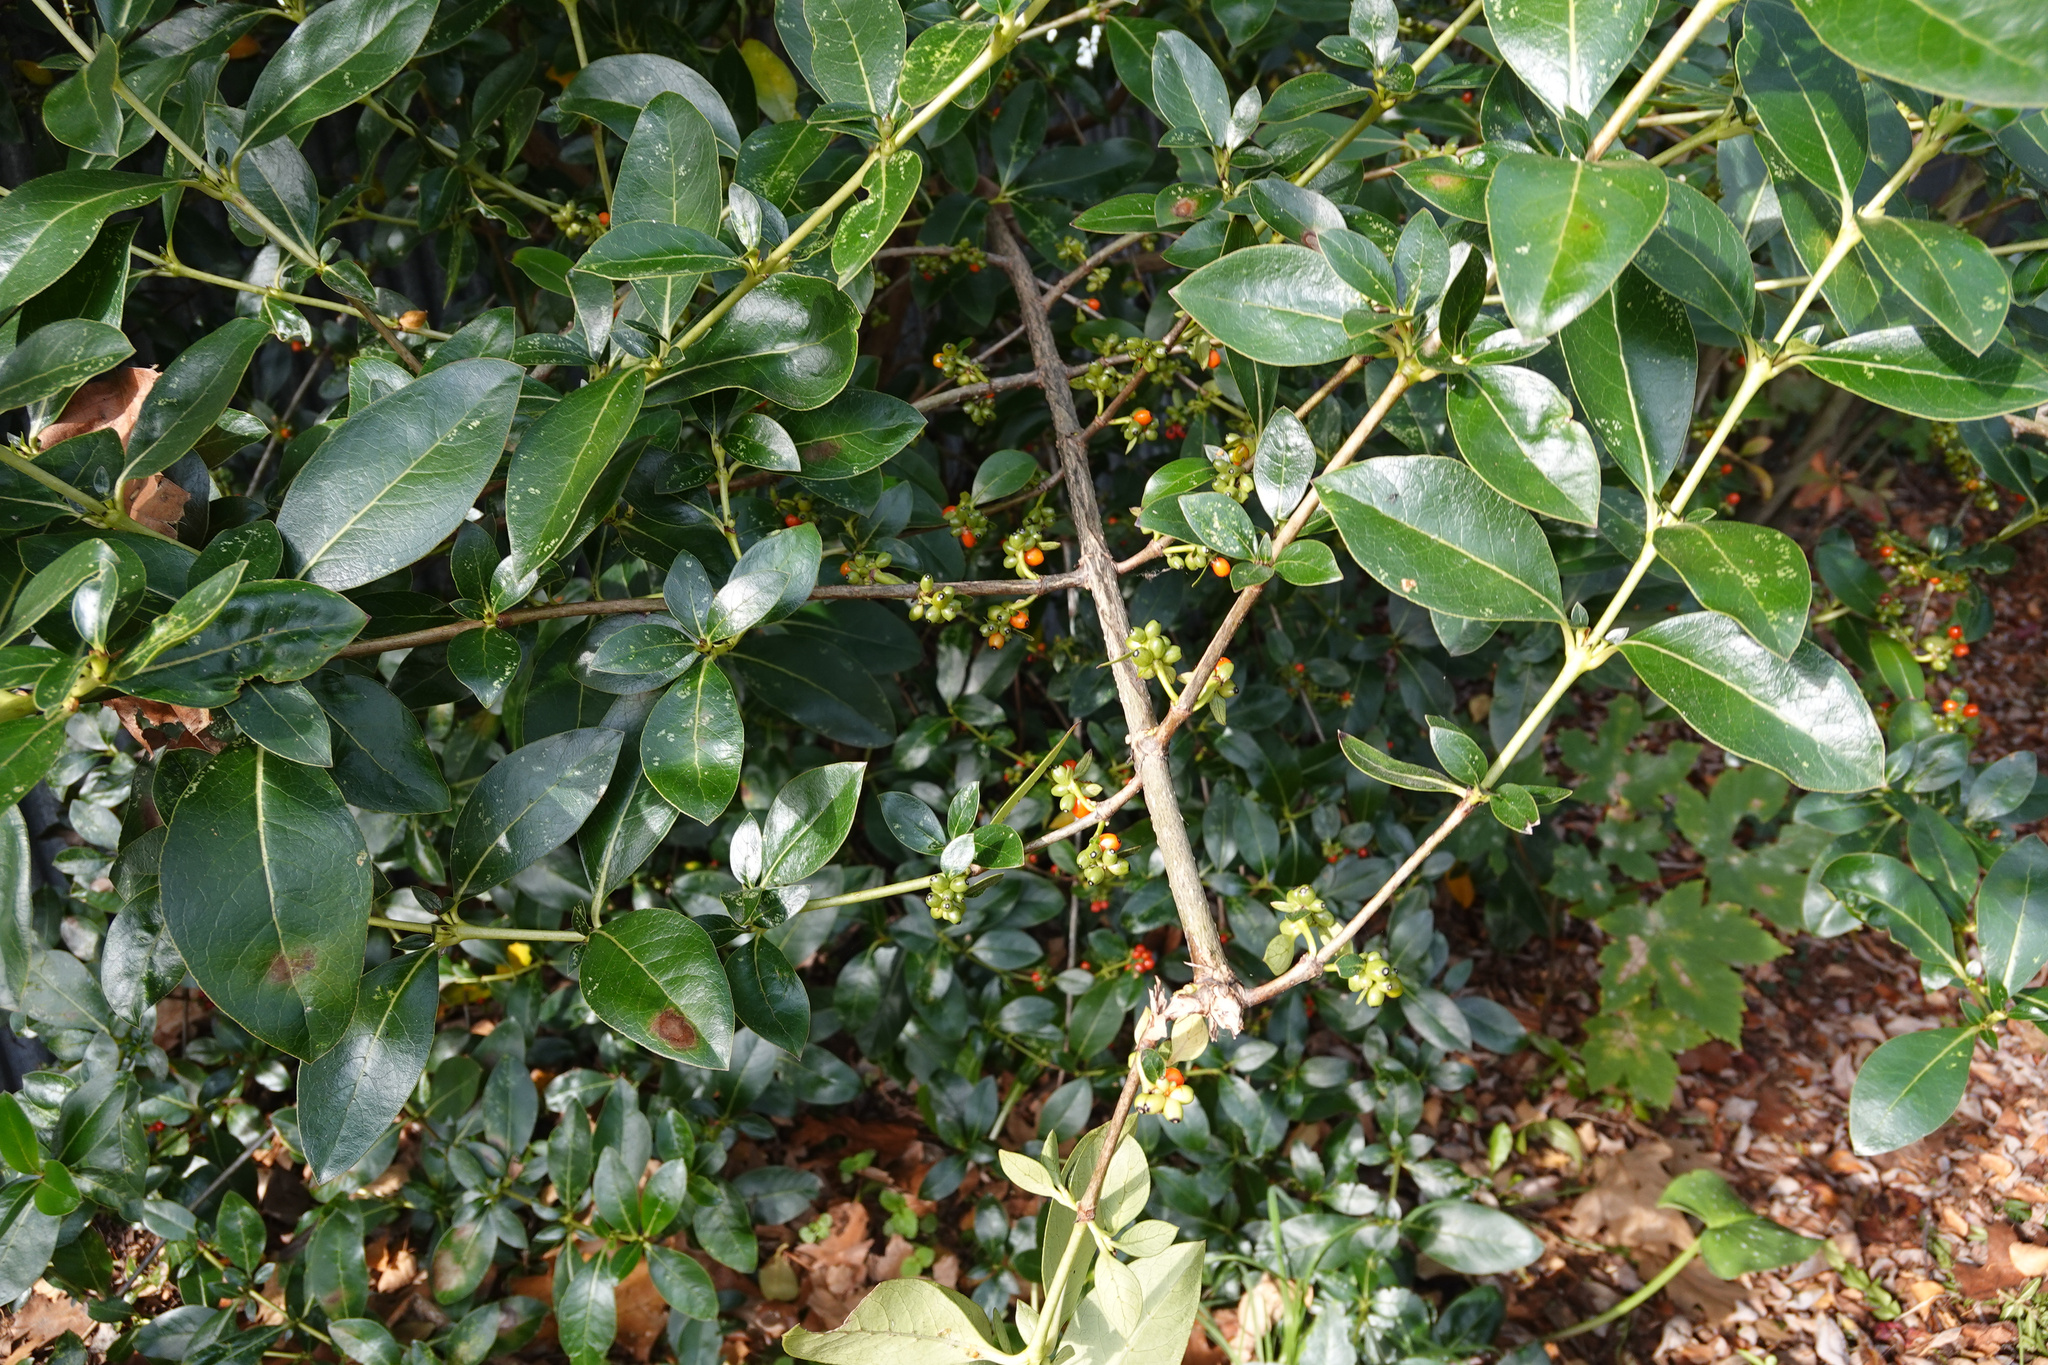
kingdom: Plantae
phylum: Tracheophyta
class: Magnoliopsida
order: Gentianales
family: Rubiaceae
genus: Coprosma
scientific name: Coprosma robusta
